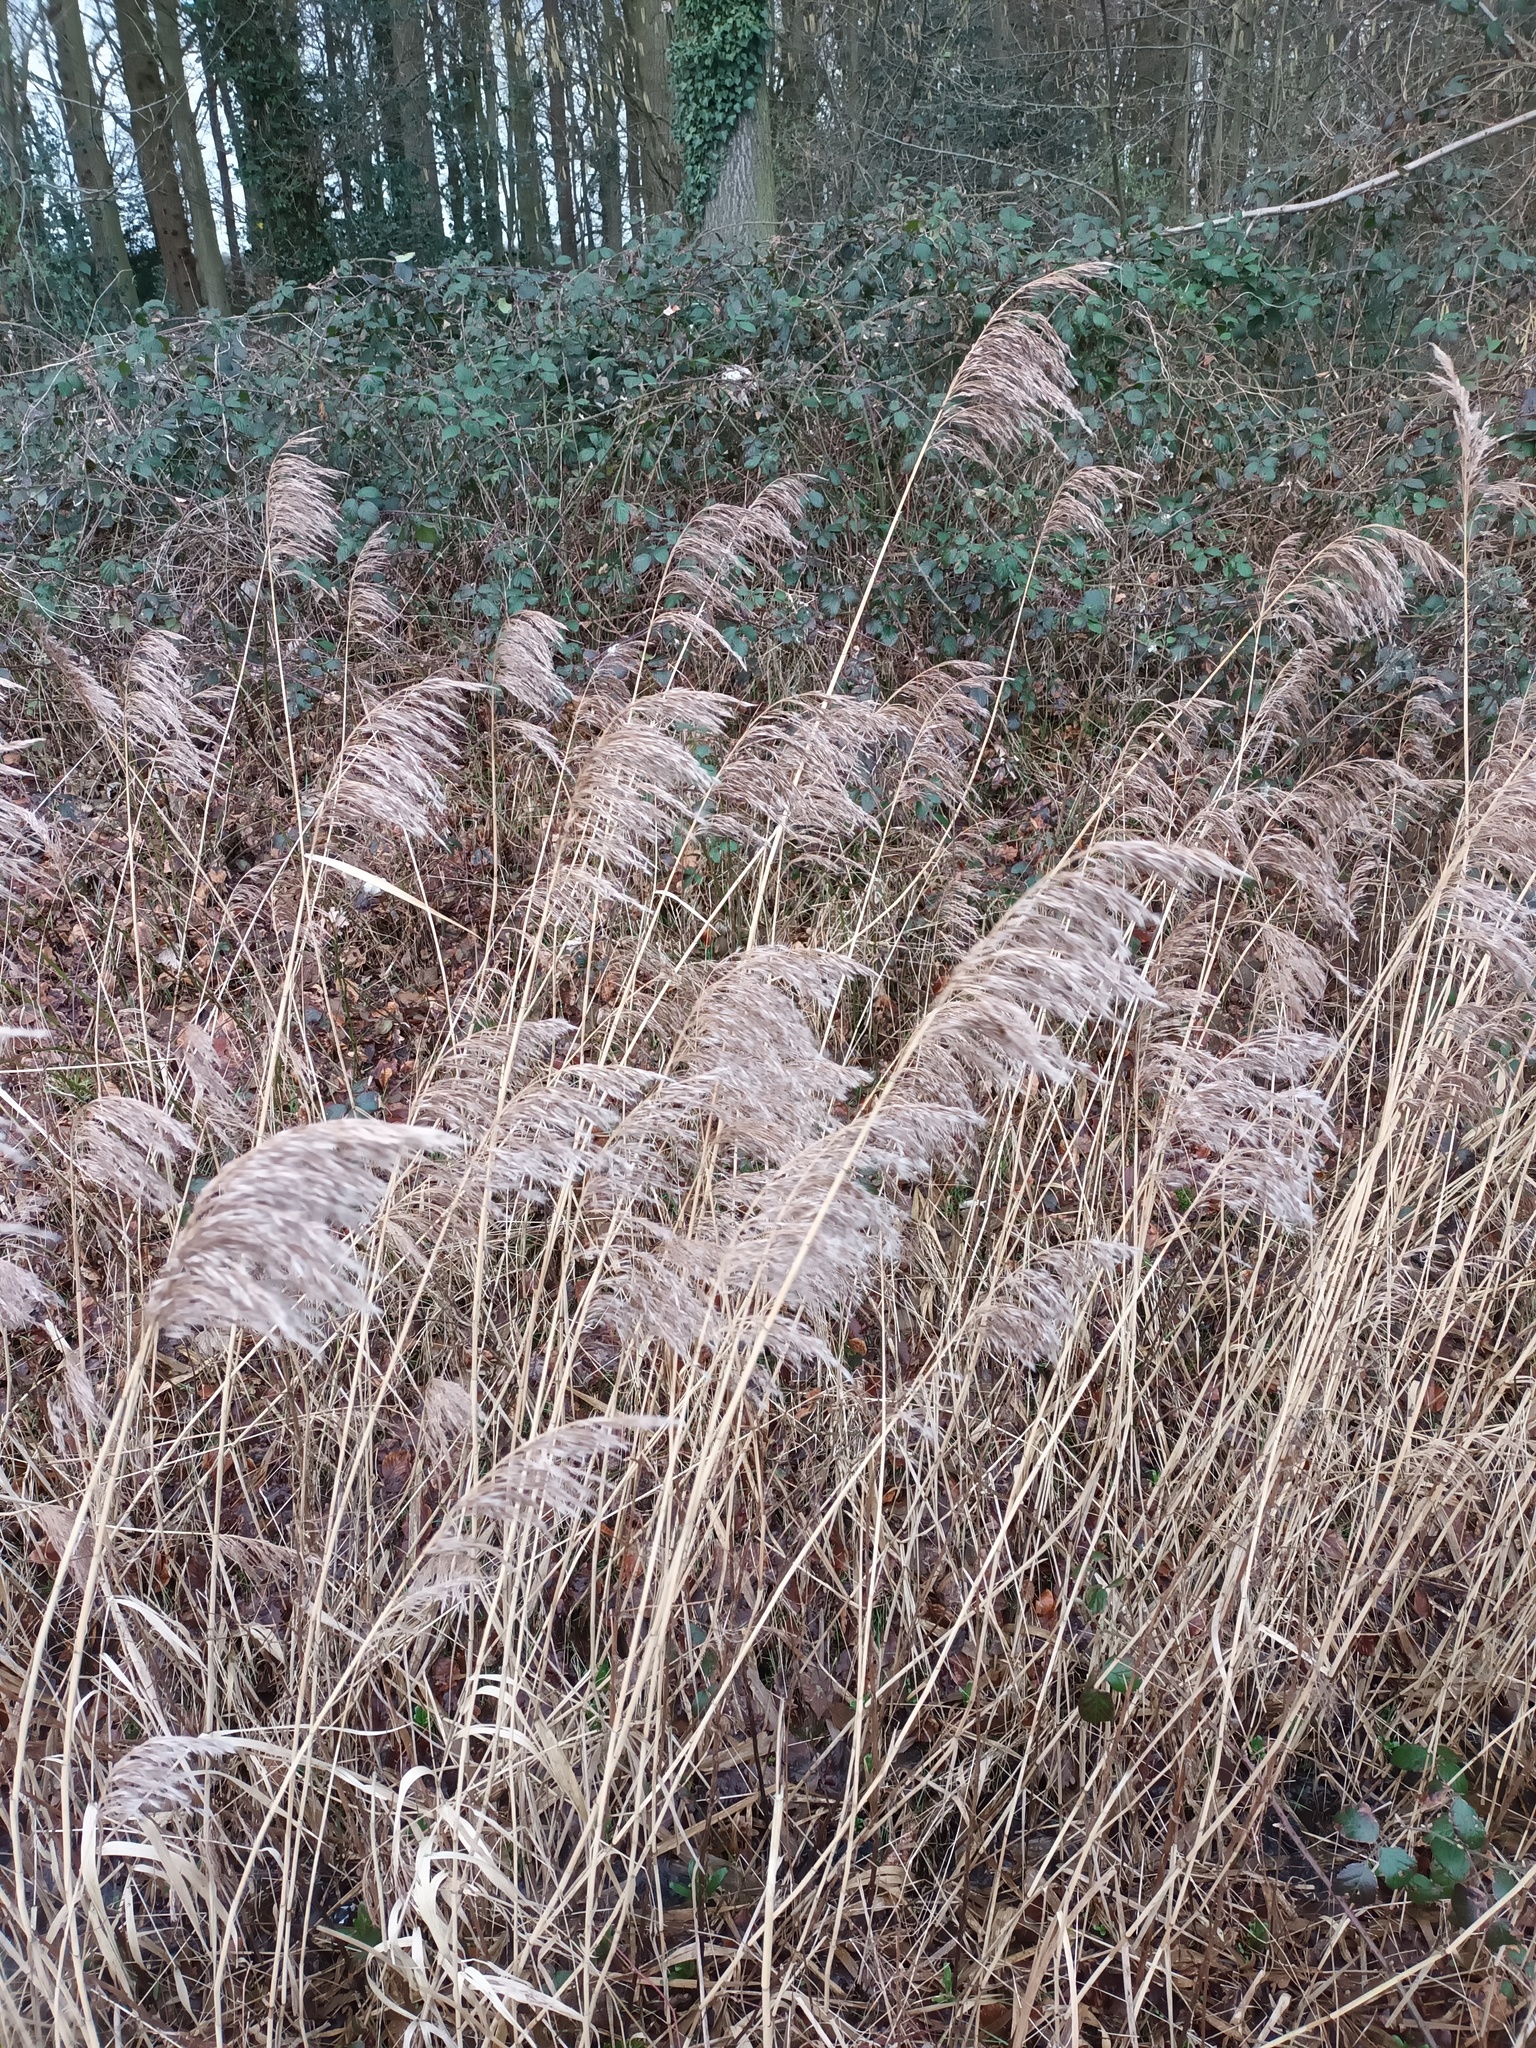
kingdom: Plantae
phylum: Tracheophyta
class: Liliopsida
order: Poales
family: Poaceae
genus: Phragmites
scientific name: Phragmites australis
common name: Common reed
